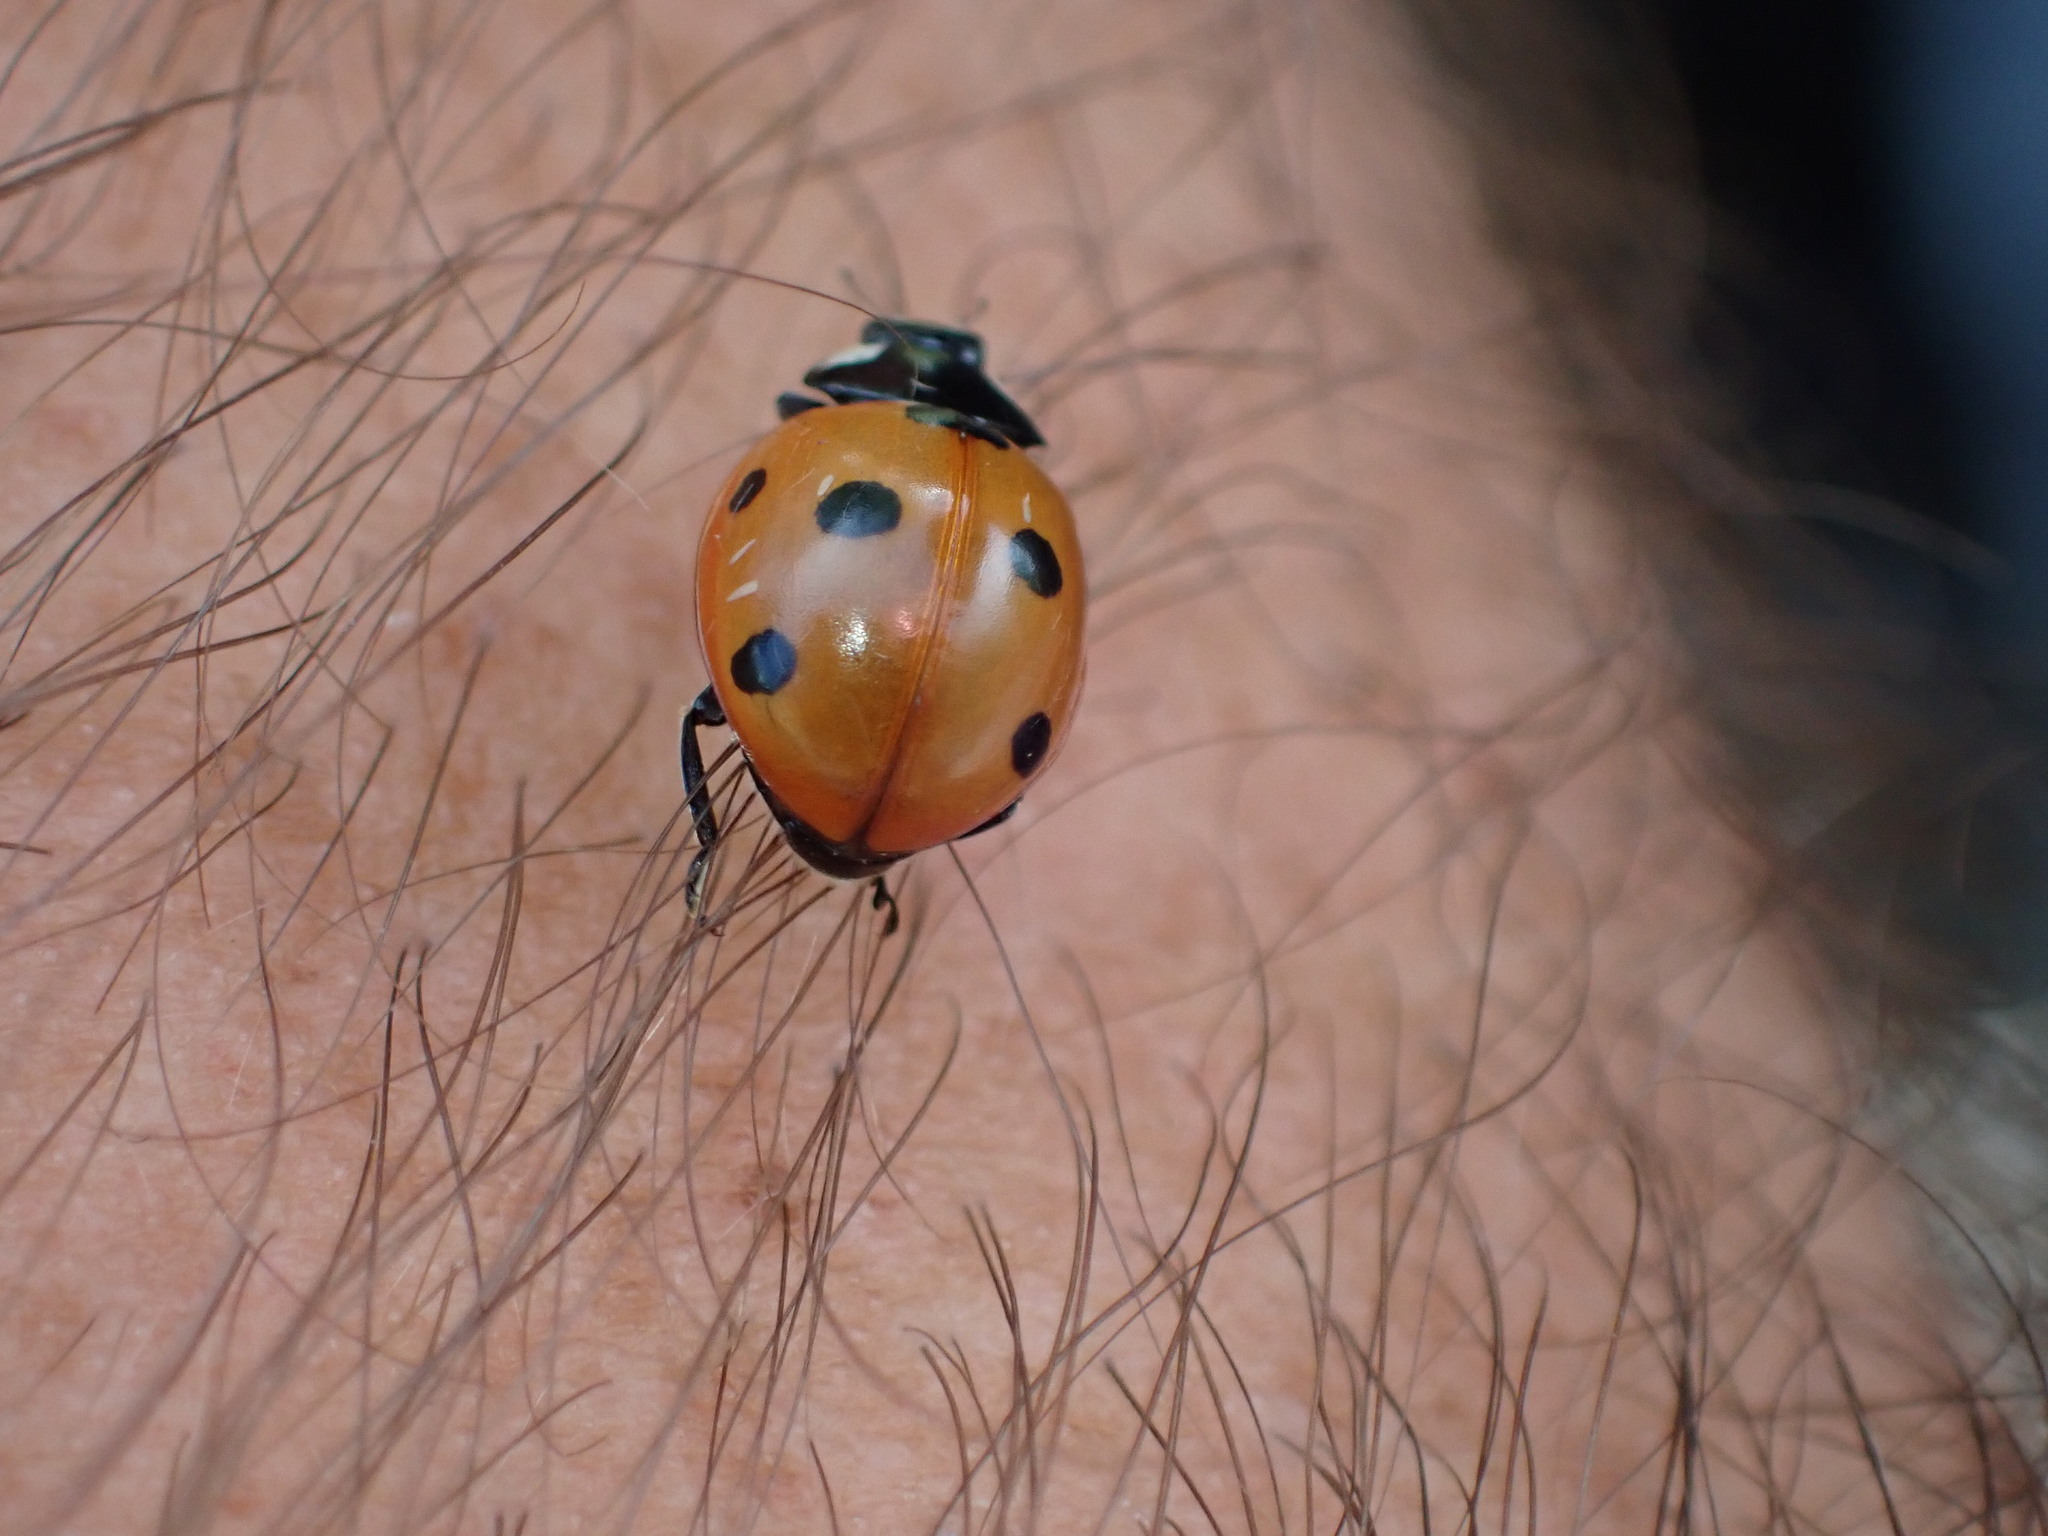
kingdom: Animalia
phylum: Arthropoda
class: Insecta
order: Coleoptera
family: Coccinellidae
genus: Coccinella
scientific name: Coccinella septempunctata
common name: Sevenspotted lady beetle
